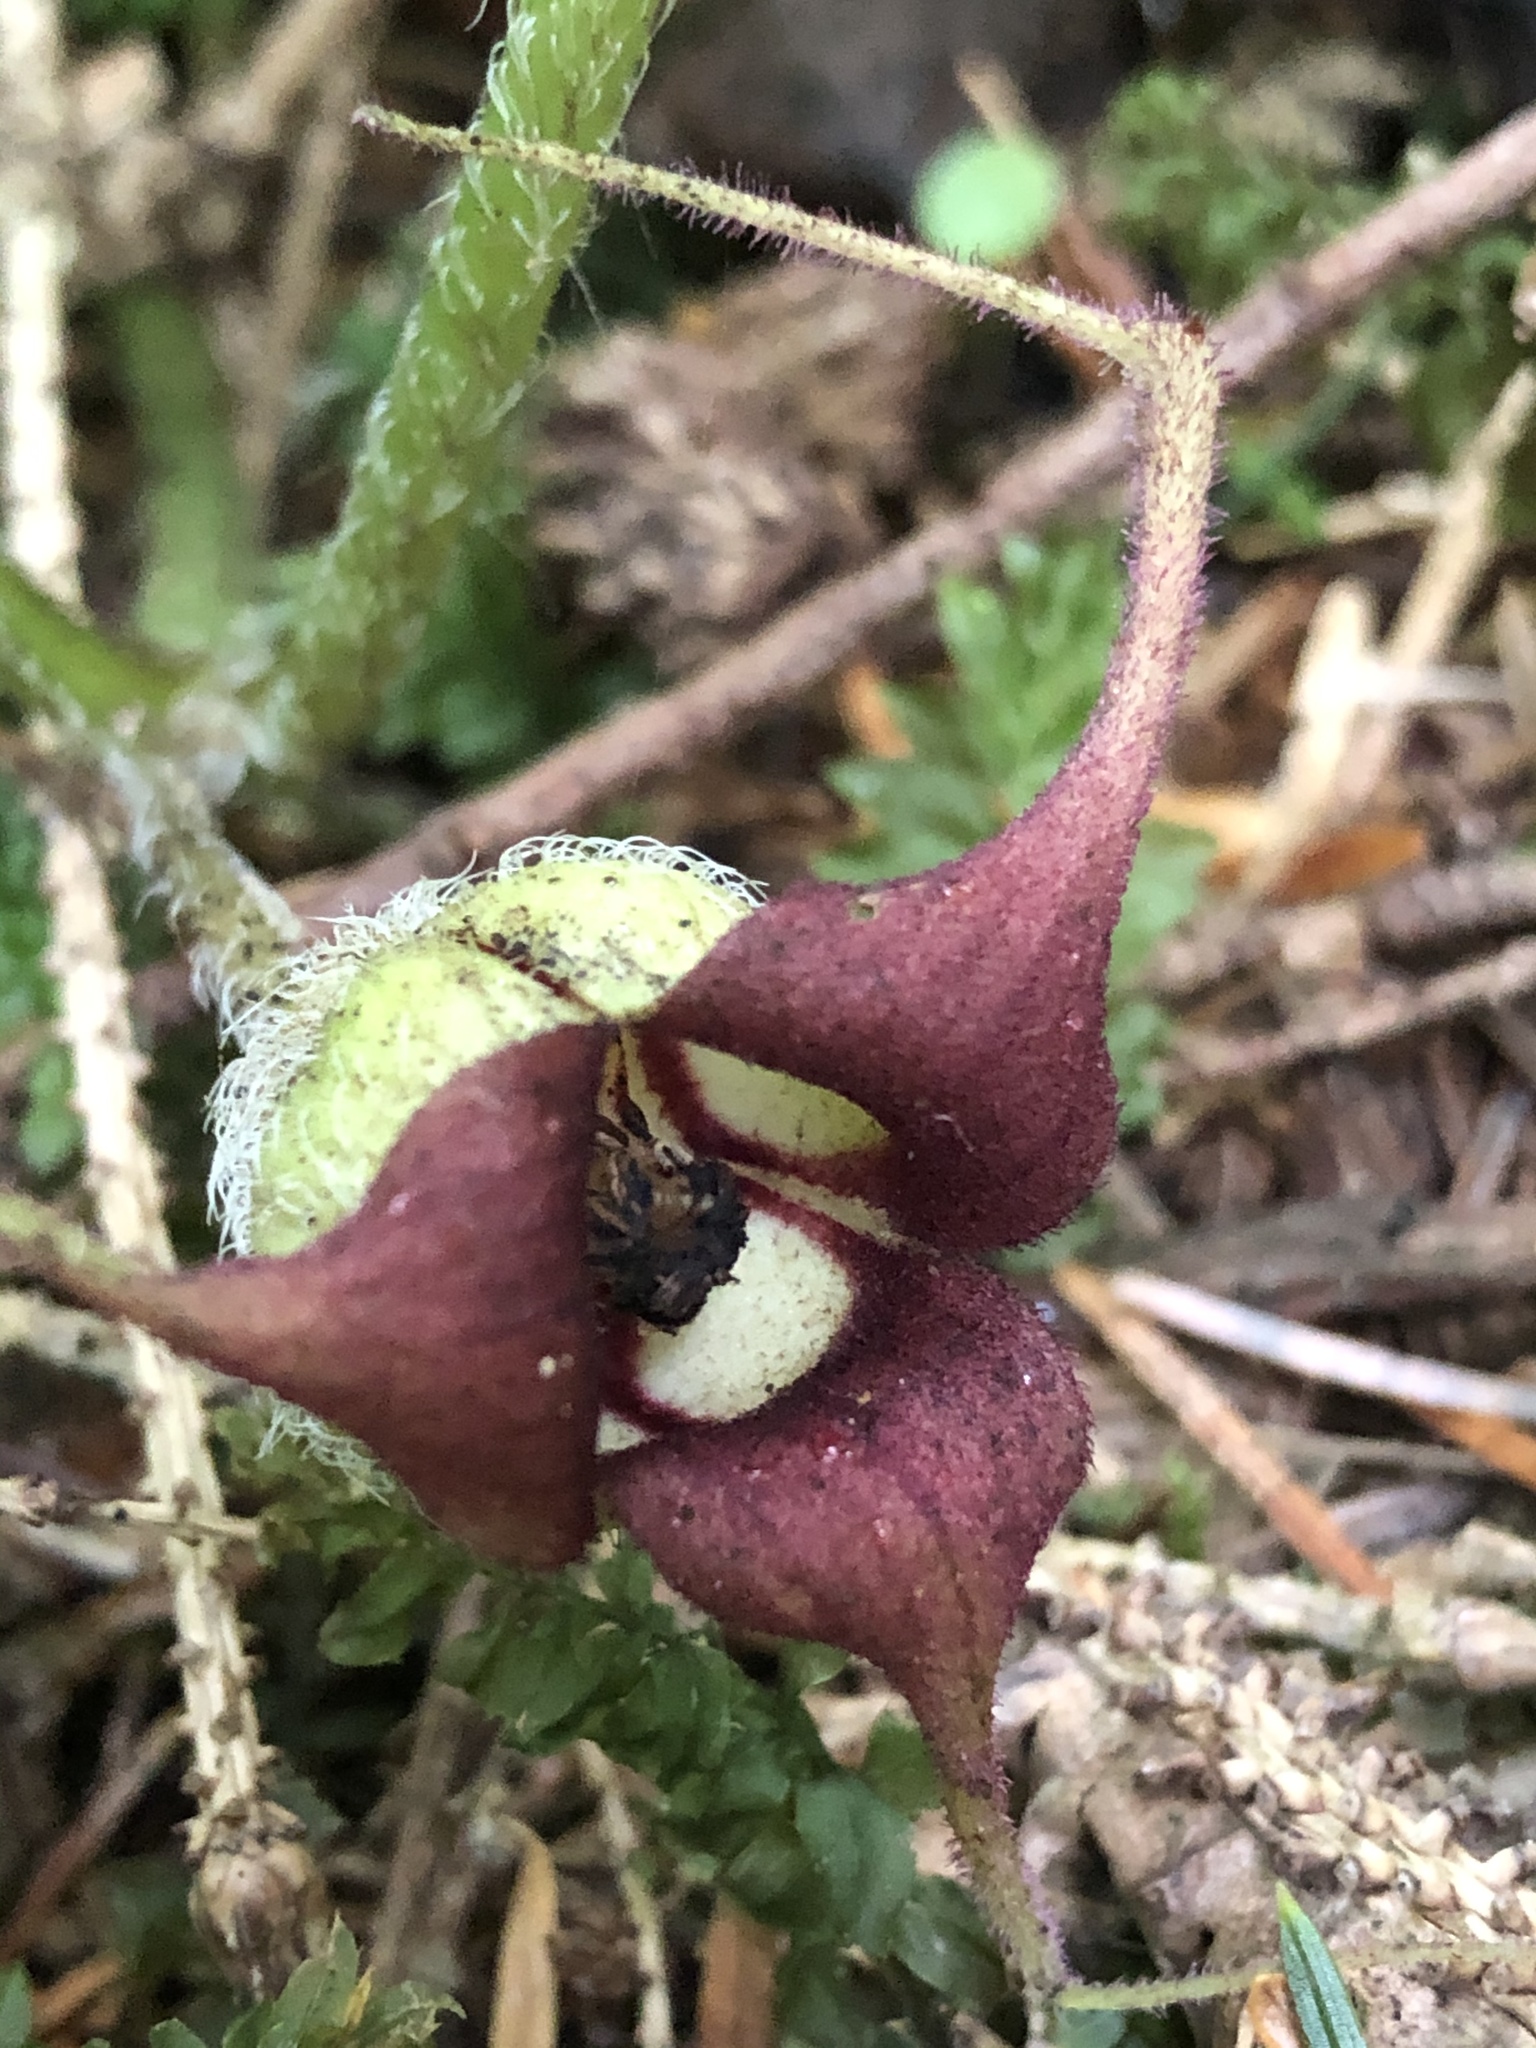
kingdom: Plantae
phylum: Tracheophyta
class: Magnoliopsida
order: Piperales
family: Aristolochiaceae
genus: Asarum
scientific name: Asarum caudatum
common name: Wild ginger
